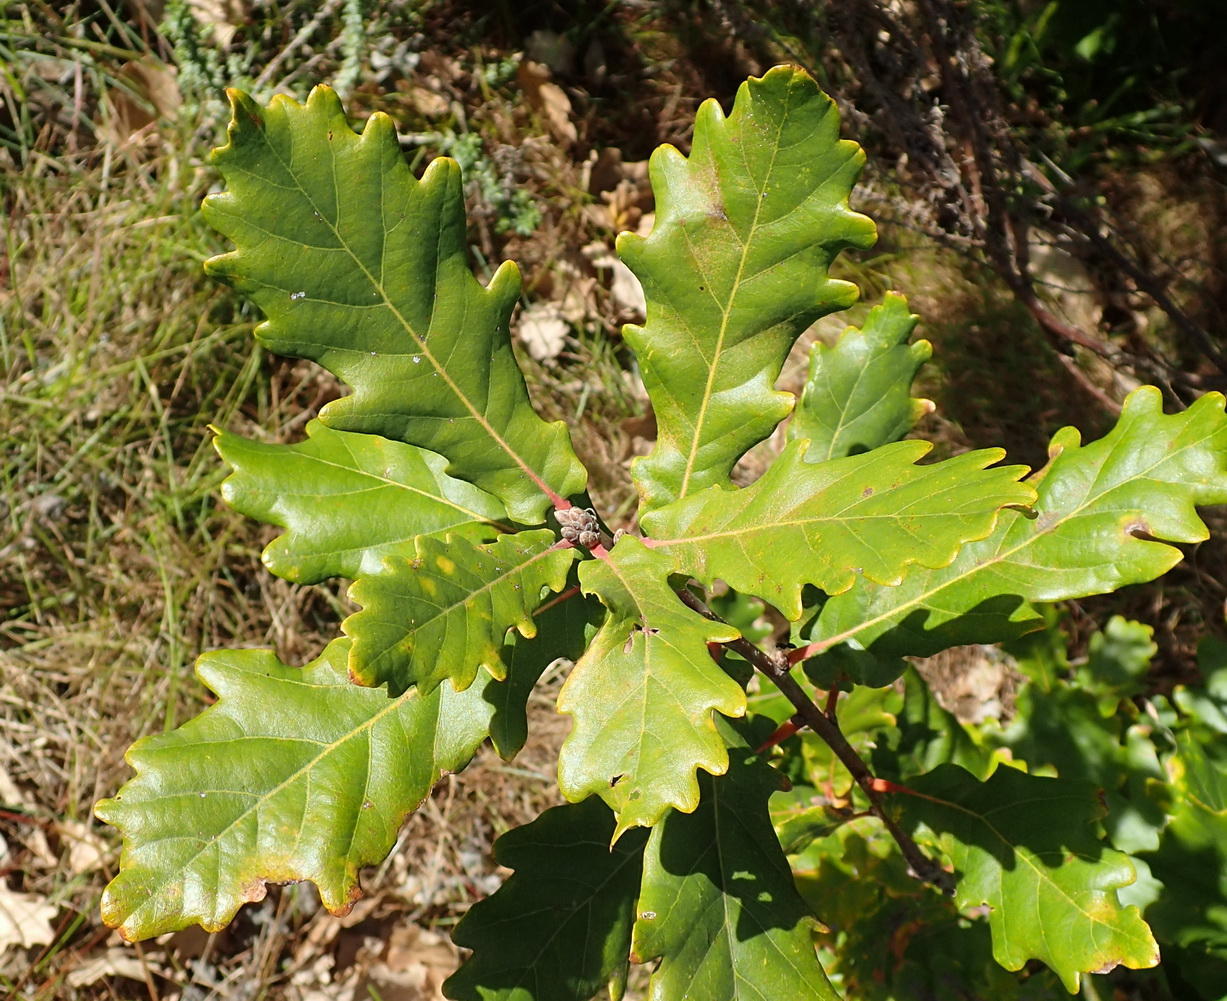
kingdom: Plantae
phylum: Tracheophyta
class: Magnoliopsida
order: Fagales
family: Fagaceae
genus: Quercus
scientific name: Quercus robur
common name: Pedunculate oak
